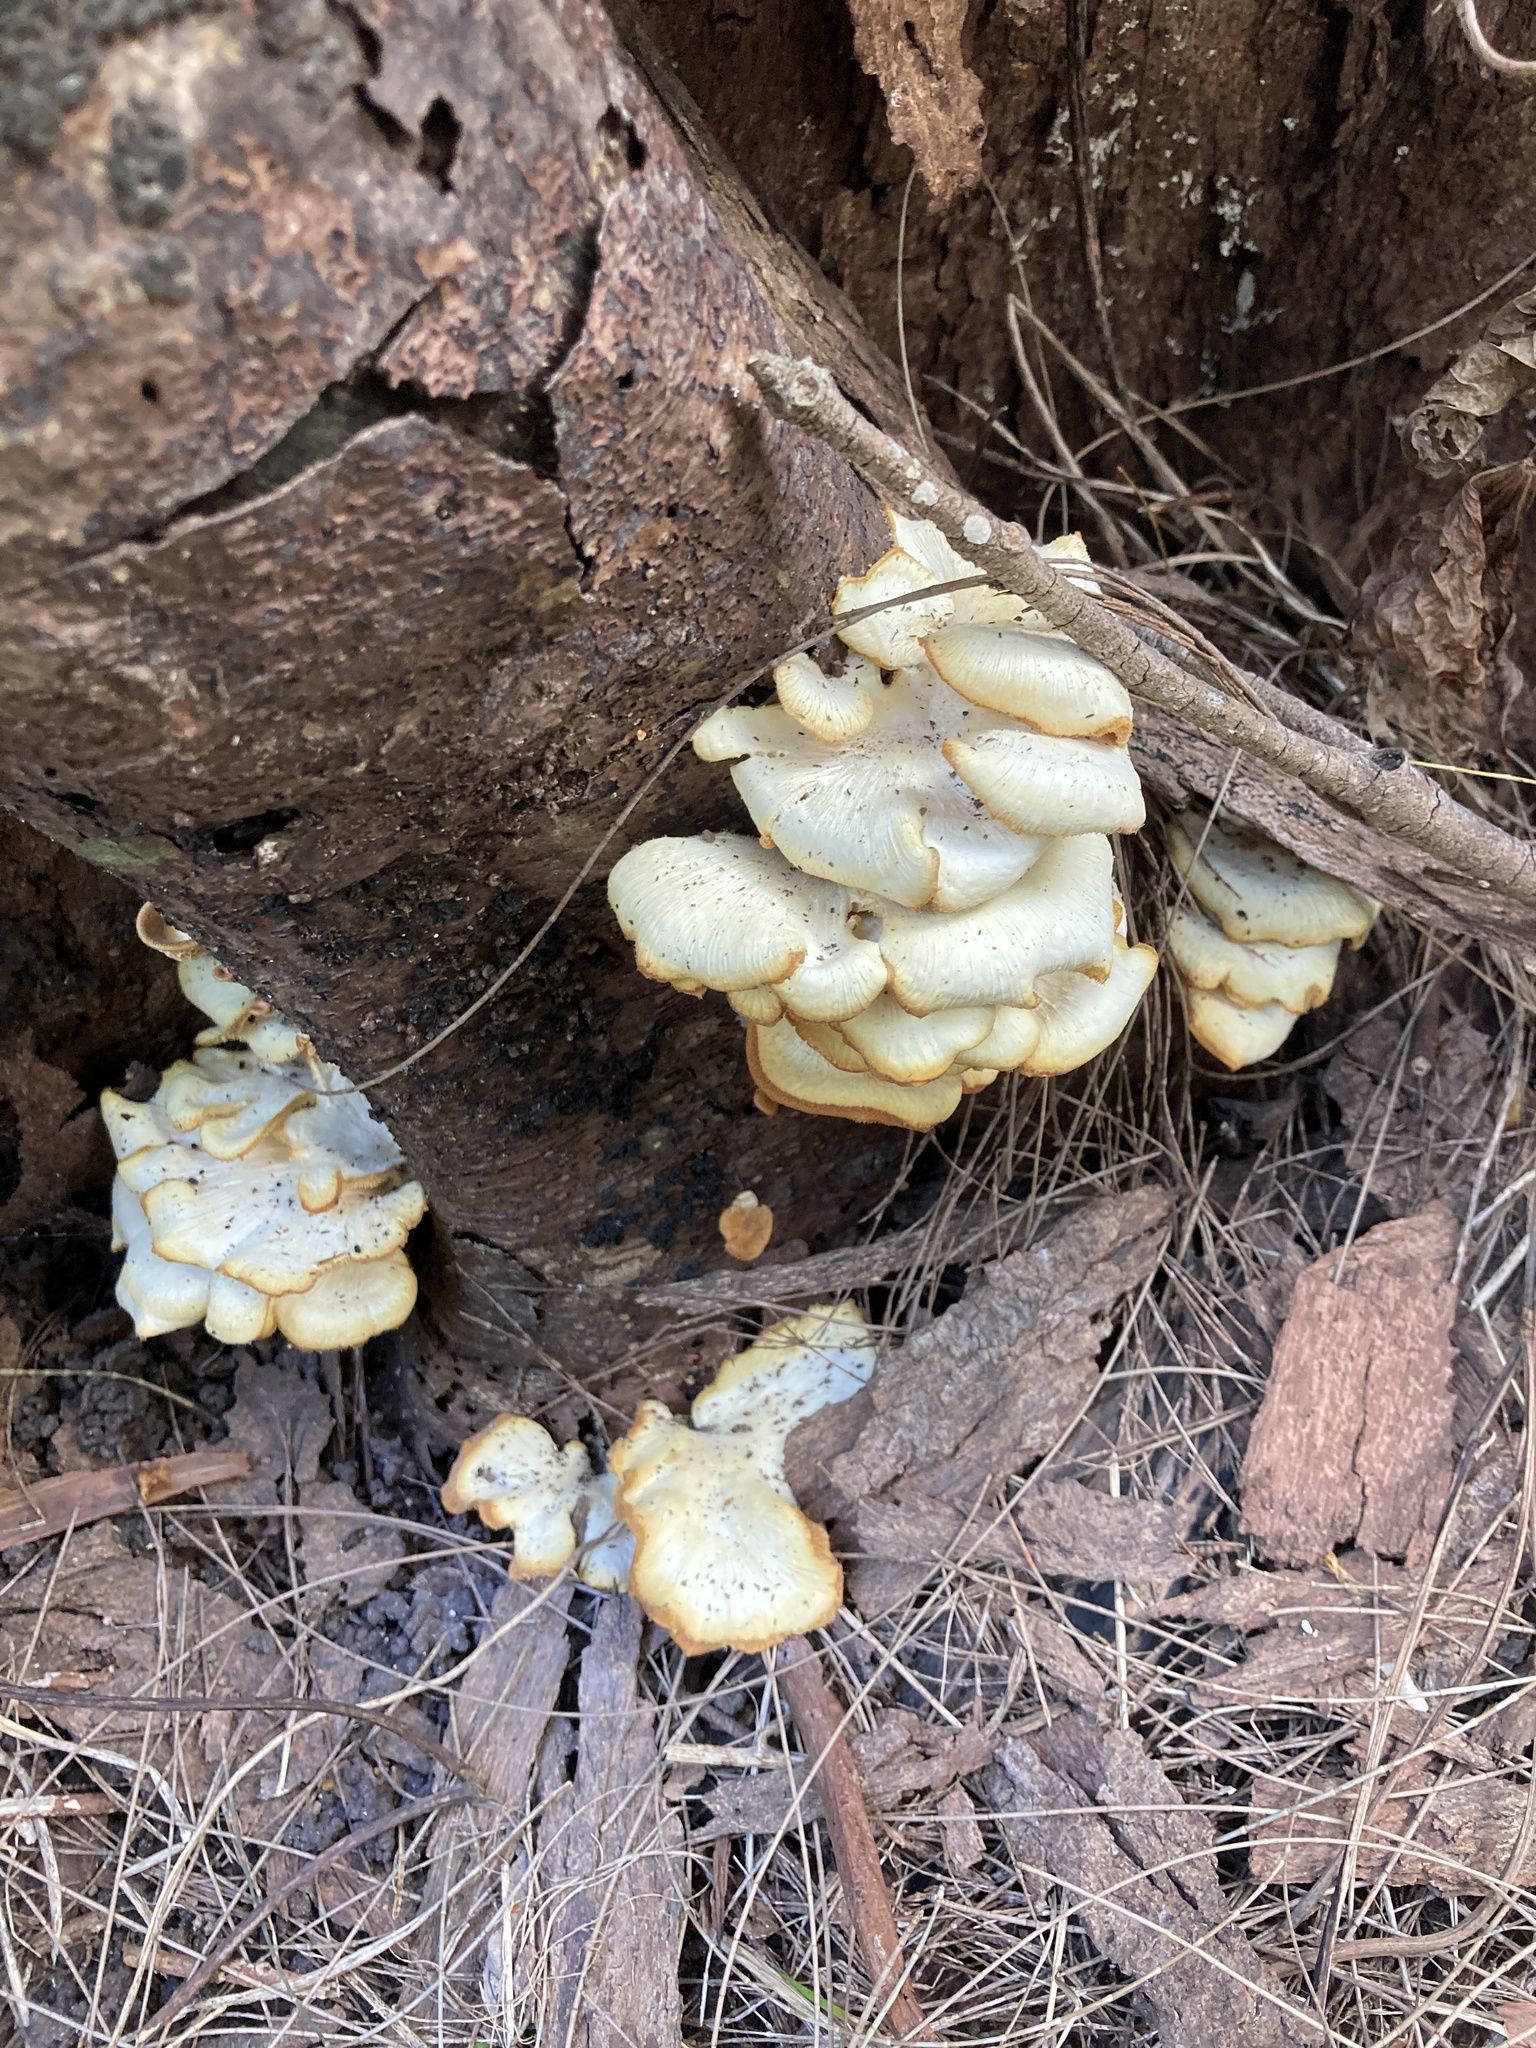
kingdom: Fungi
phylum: Basidiomycota
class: Agaricomycetes
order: Polyporales
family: Polyporaceae
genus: Favolus
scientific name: Favolus tenuiculus
